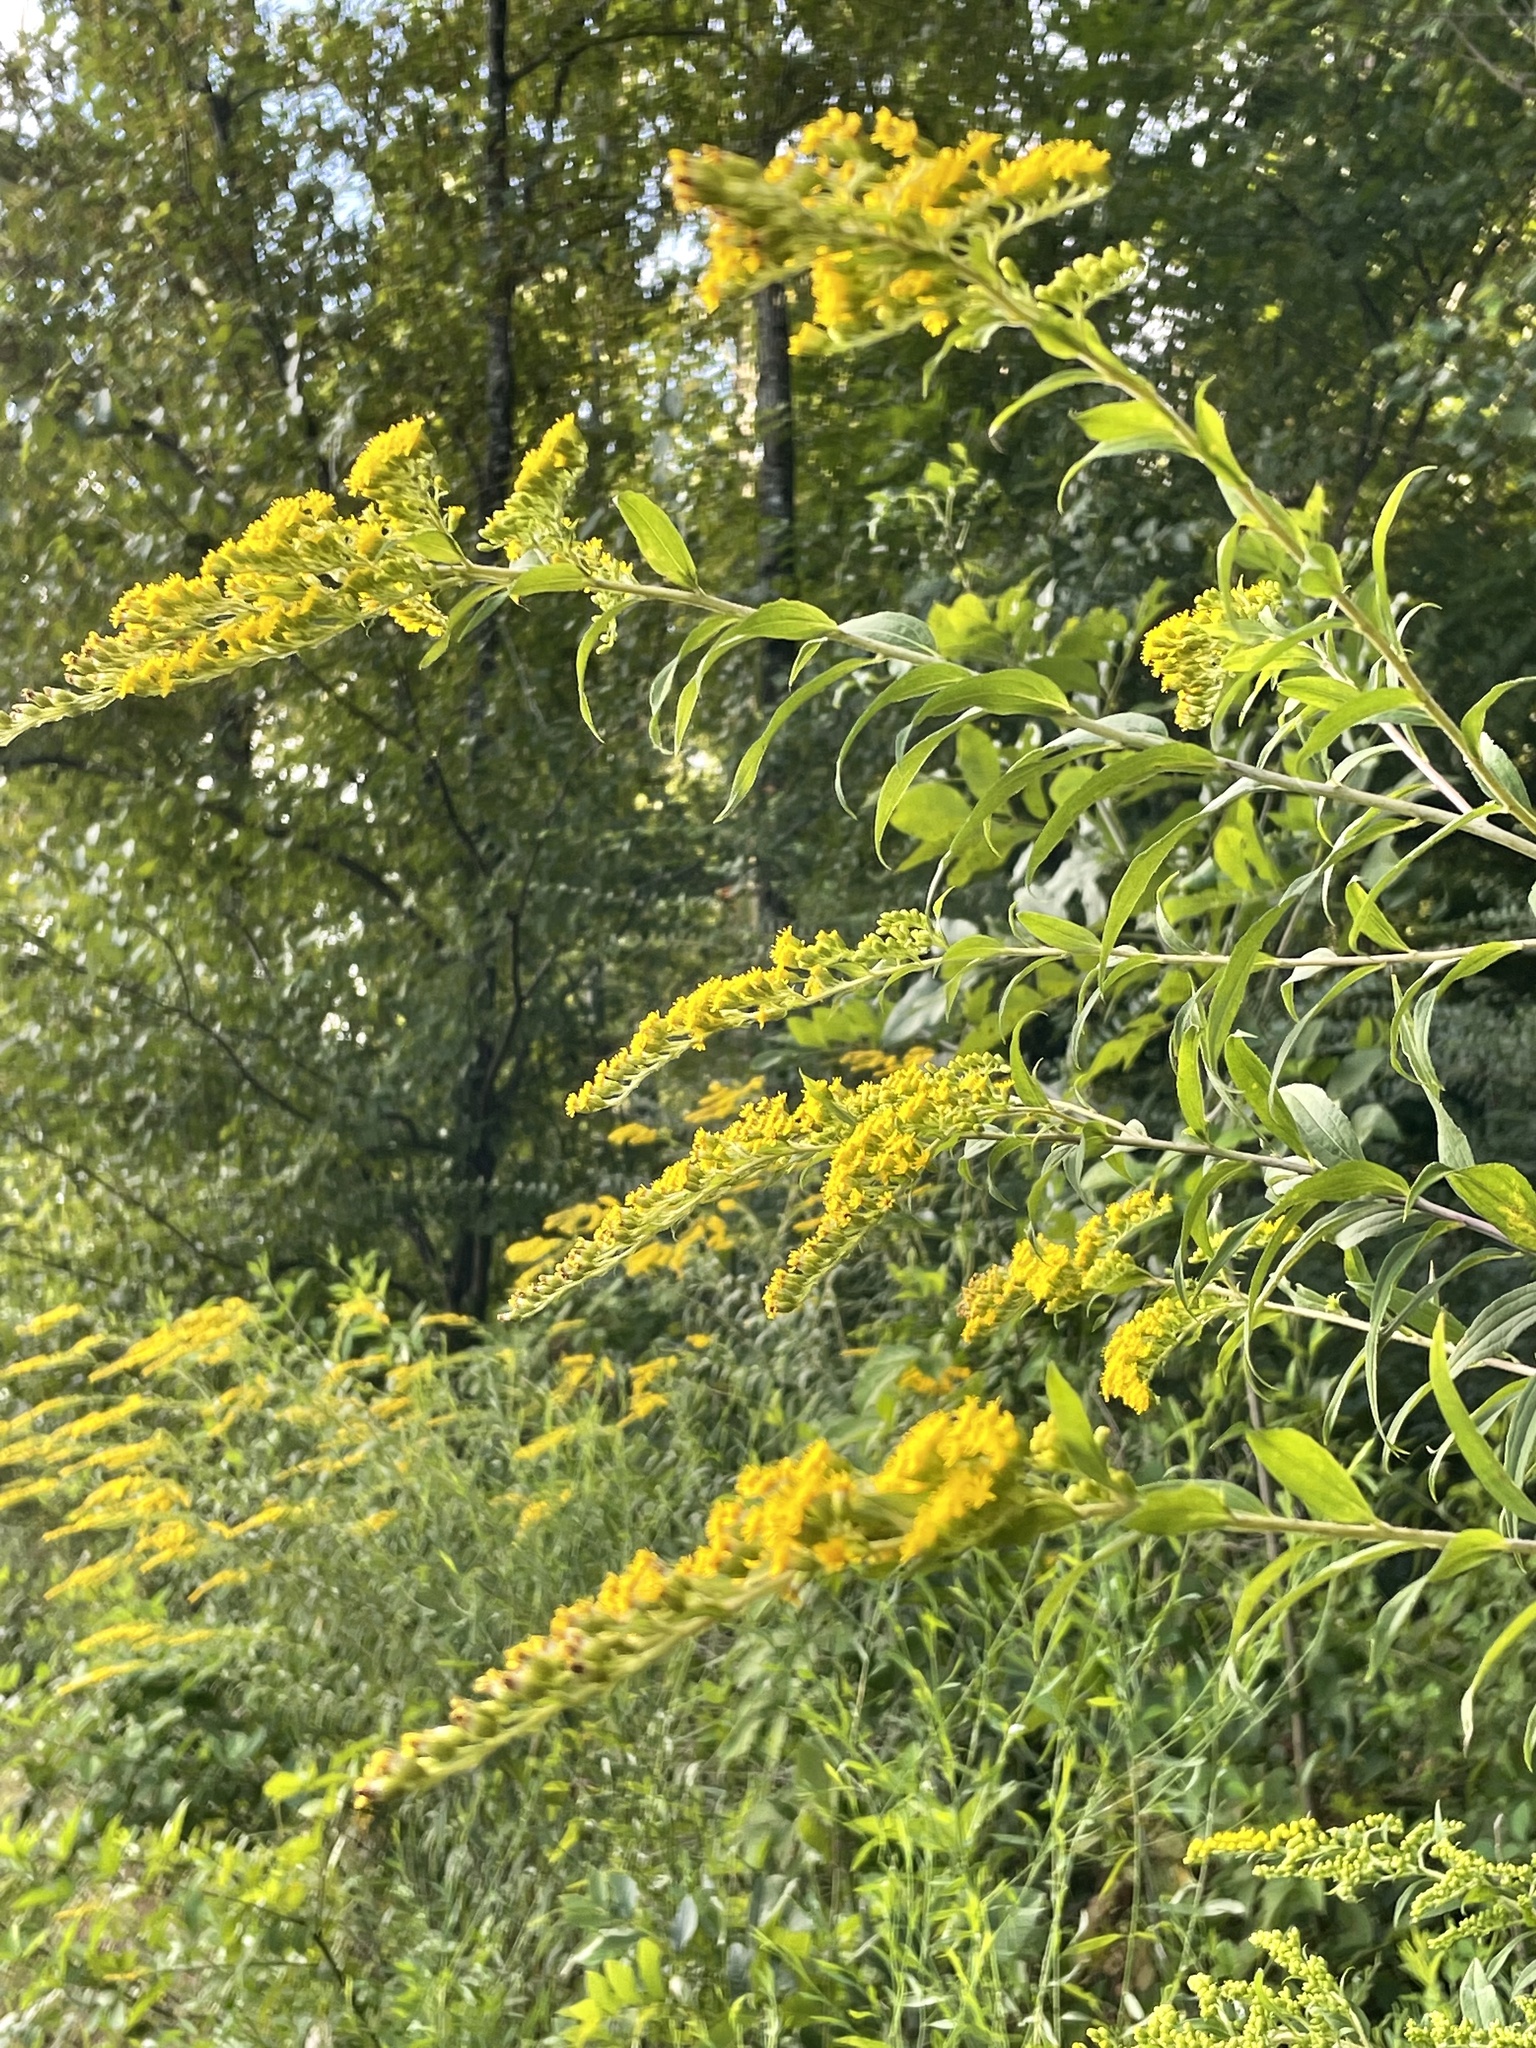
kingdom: Plantae
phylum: Tracheophyta
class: Magnoliopsida
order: Asterales
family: Asteraceae
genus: Solidago
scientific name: Solidago gigantea
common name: Giant goldenrod
